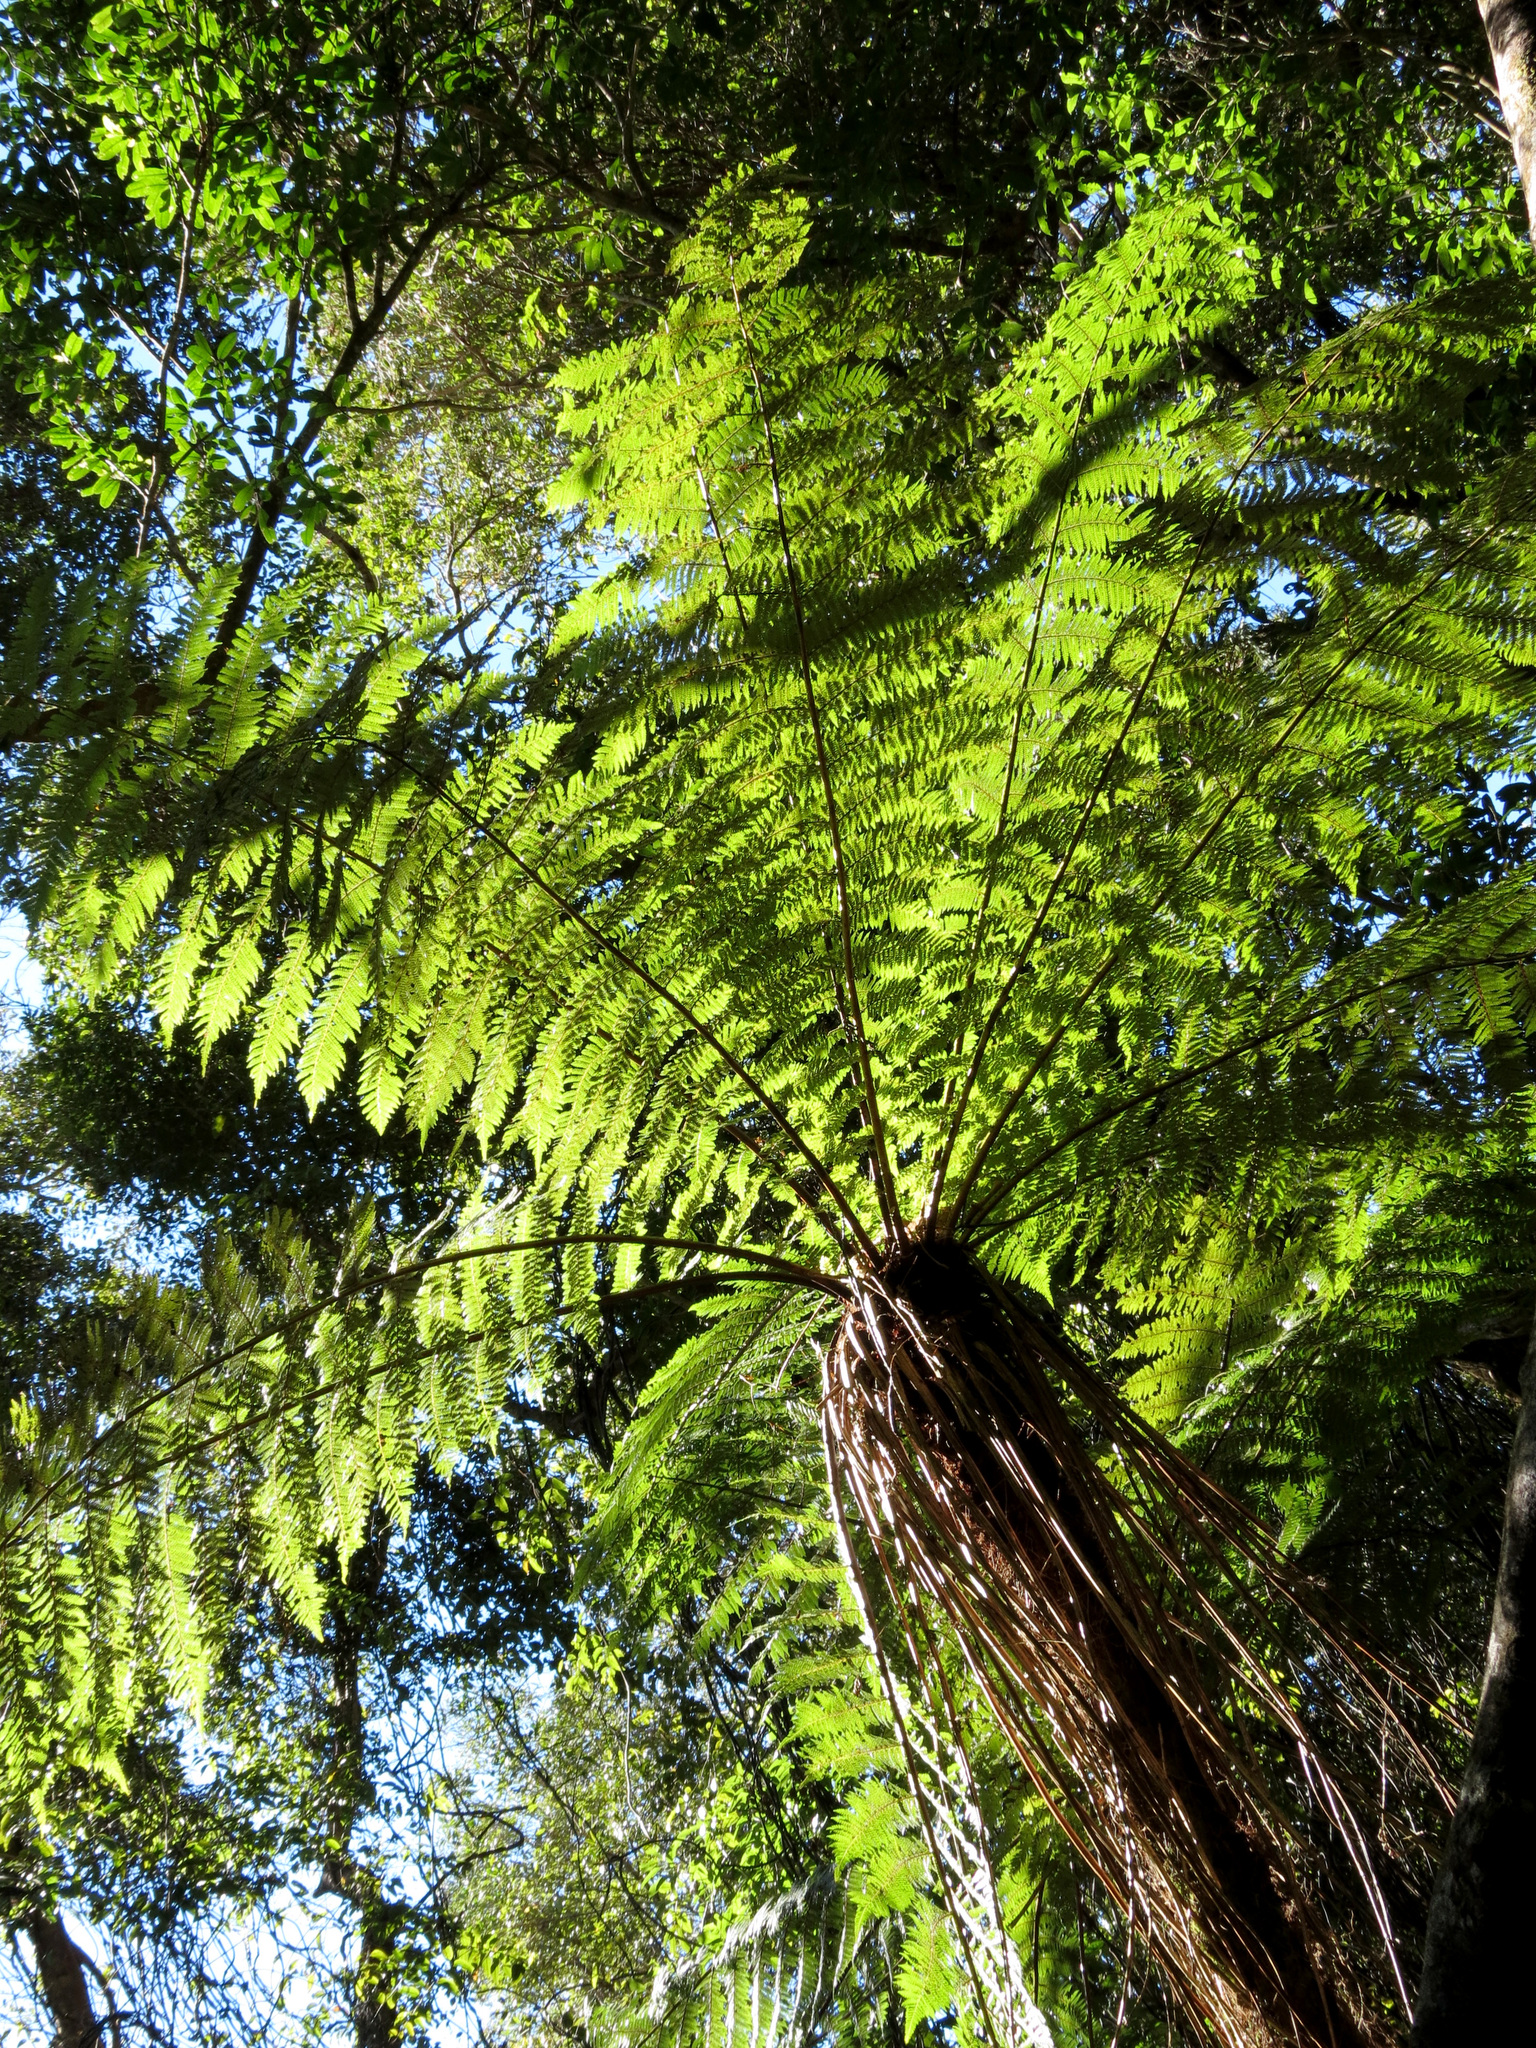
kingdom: Plantae
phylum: Tracheophyta
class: Polypodiopsida
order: Cyatheales
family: Cyatheaceae
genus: Alsophila
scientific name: Alsophila smithii
